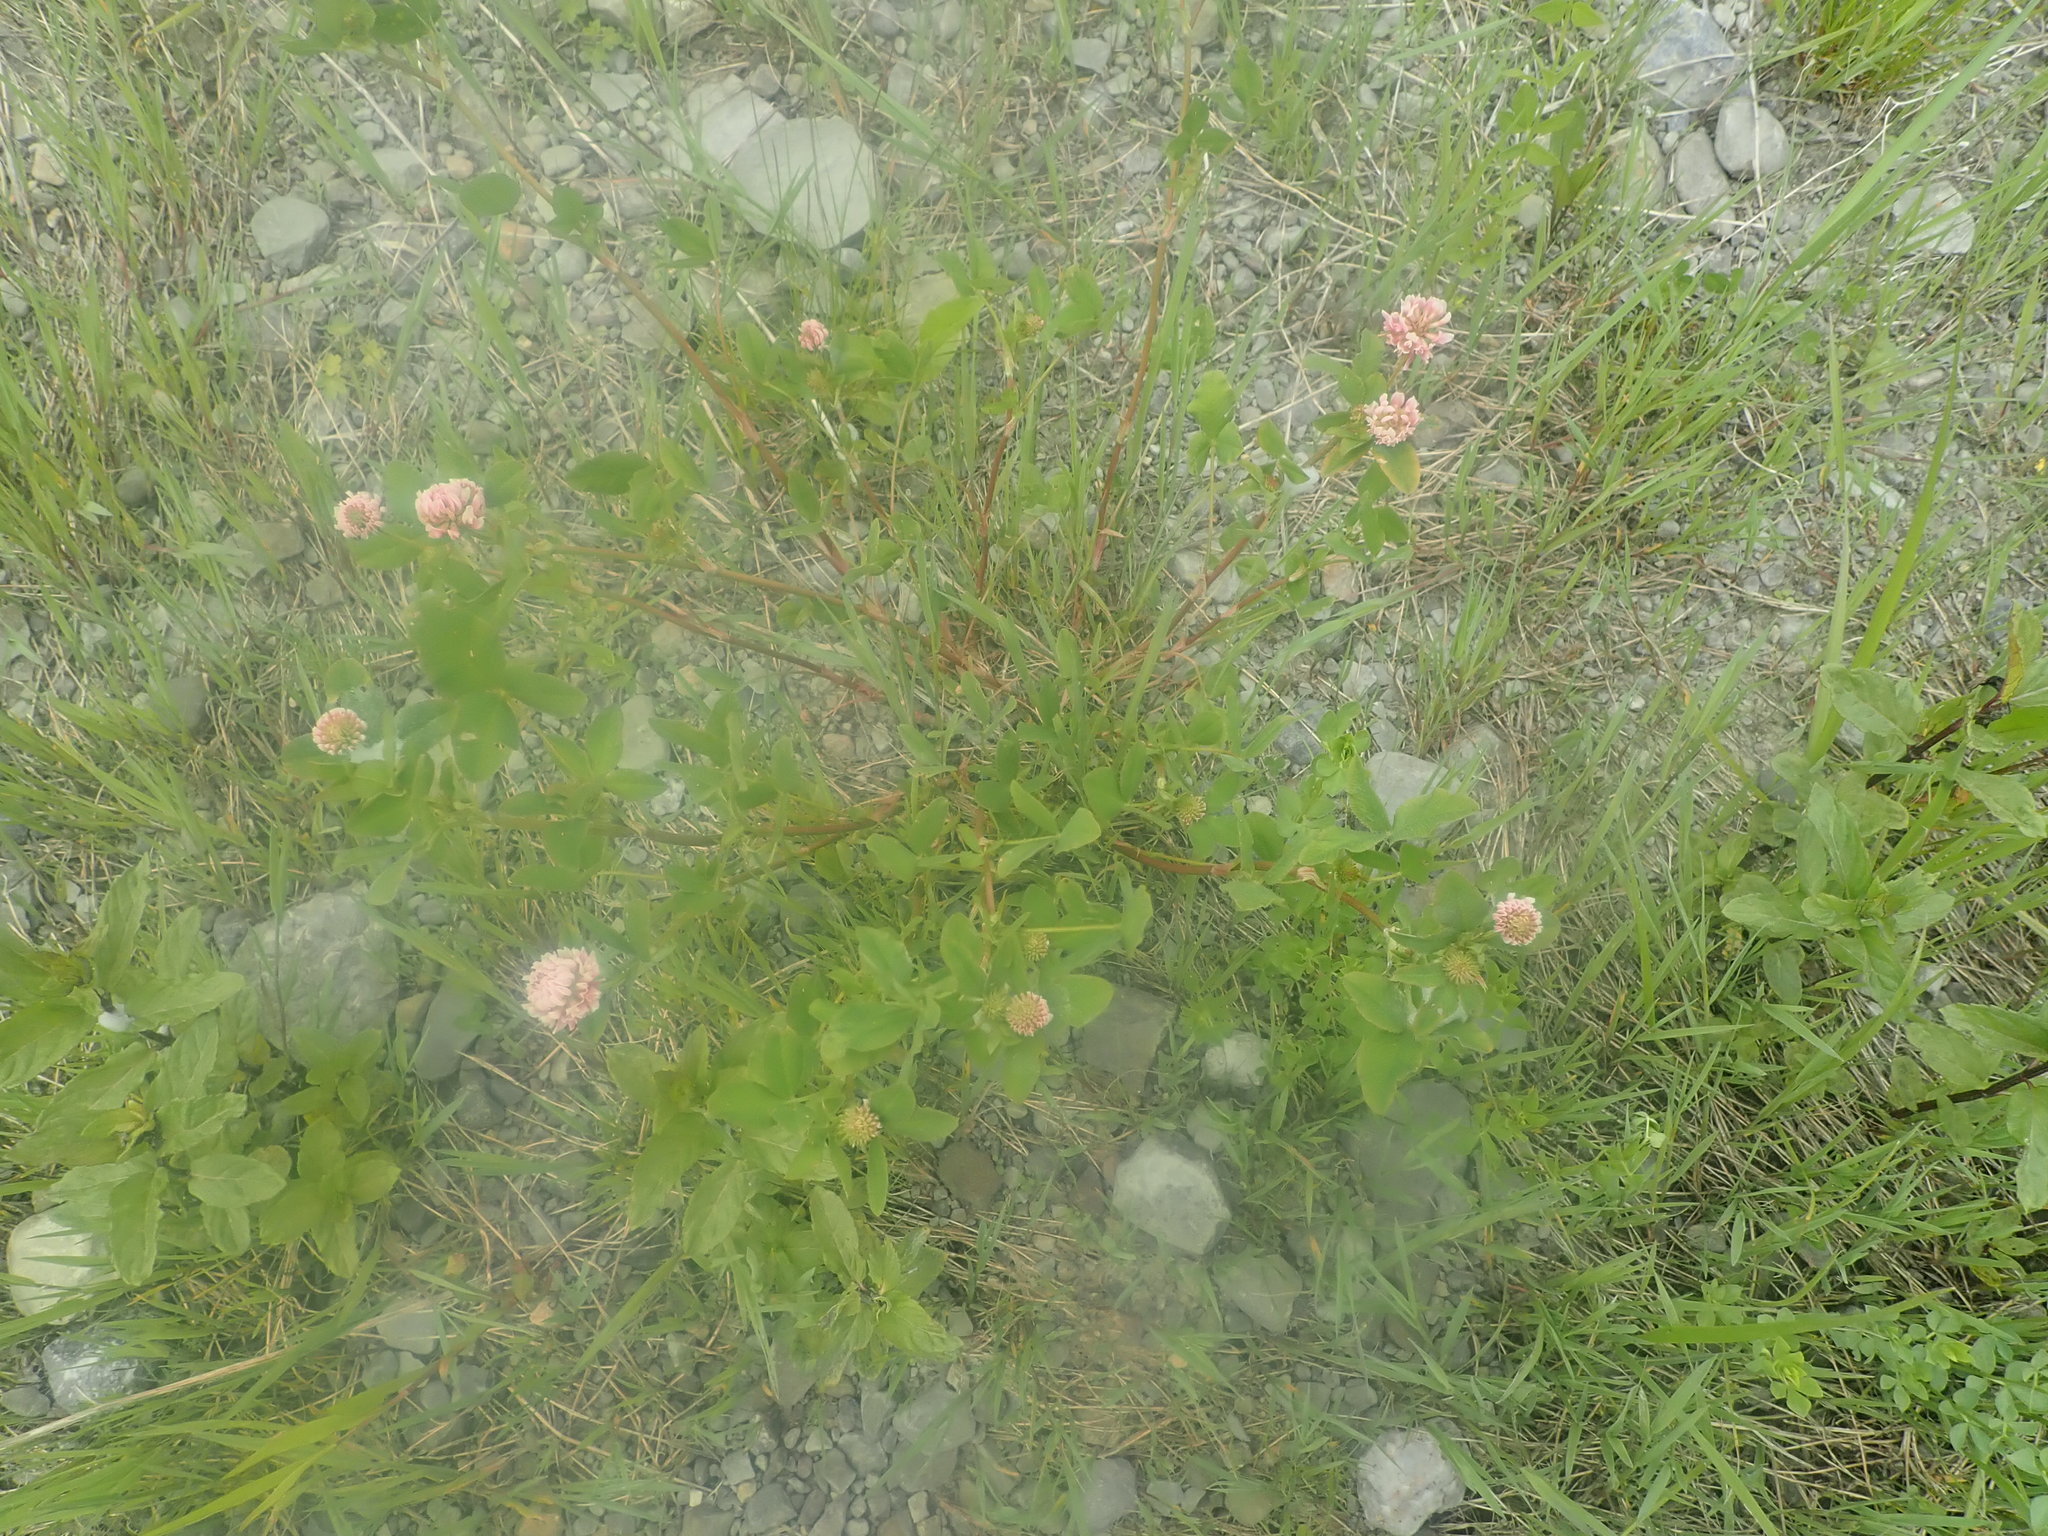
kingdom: Plantae
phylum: Tracheophyta
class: Magnoliopsida
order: Fabales
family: Fabaceae
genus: Trifolium
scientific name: Trifolium hybridum
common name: Alsike clover
